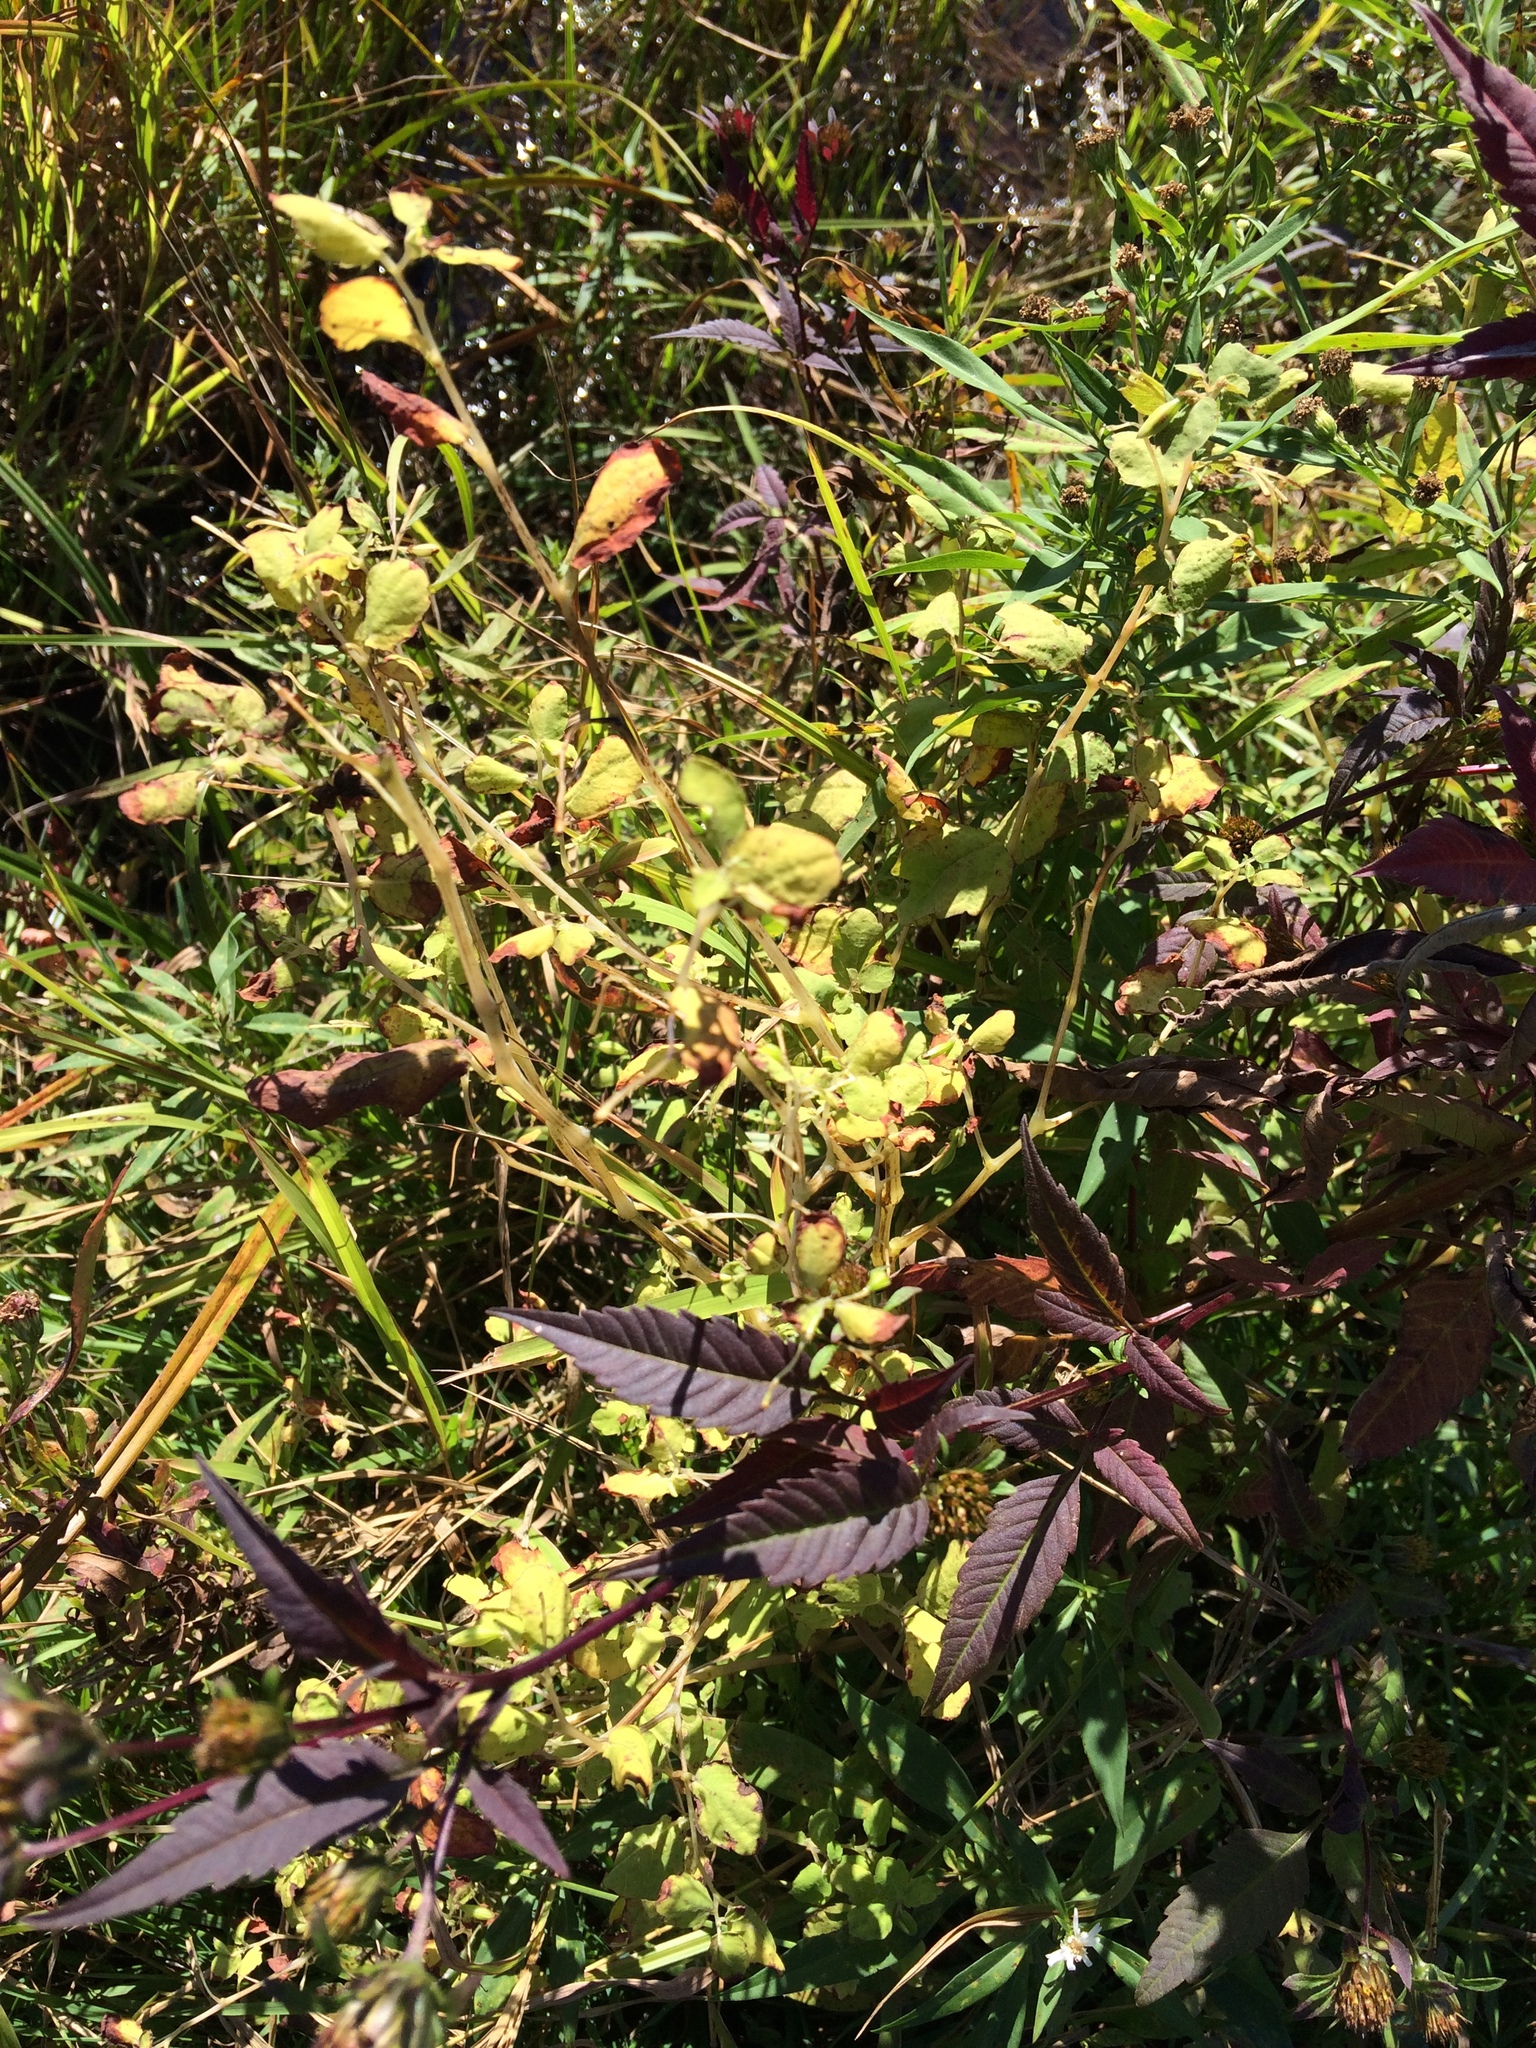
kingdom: Plantae
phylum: Tracheophyta
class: Magnoliopsida
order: Ericales
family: Balsaminaceae
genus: Impatiens
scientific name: Impatiens capensis
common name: Orange balsam
